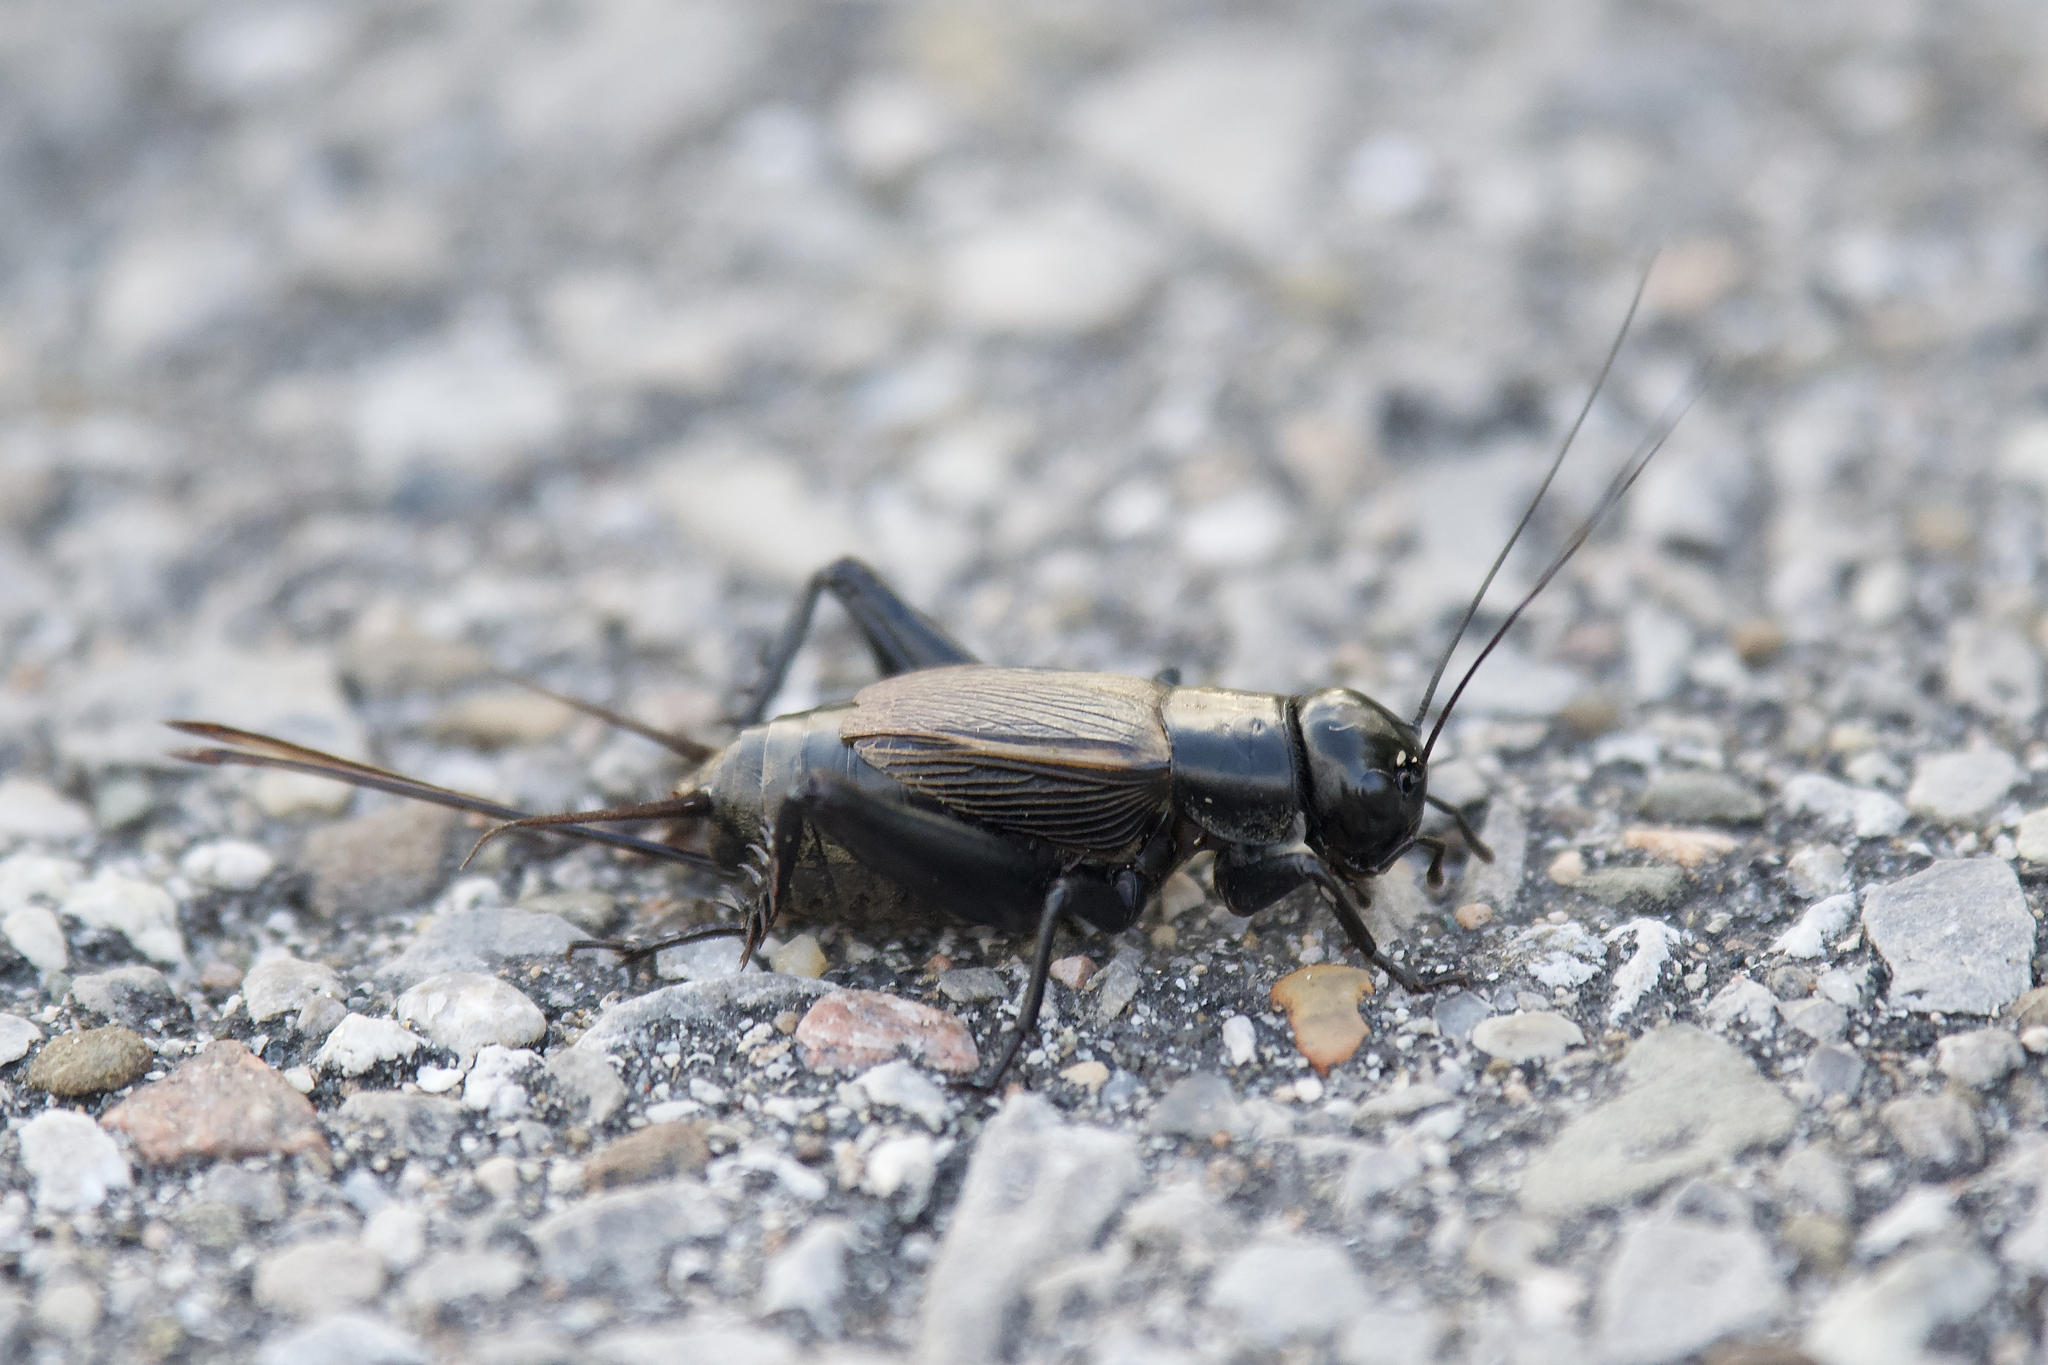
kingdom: Animalia
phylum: Arthropoda
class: Insecta
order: Orthoptera
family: Gryllidae
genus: Gryllus
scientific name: Gryllus pennsylvanicus
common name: Fall field cricket
